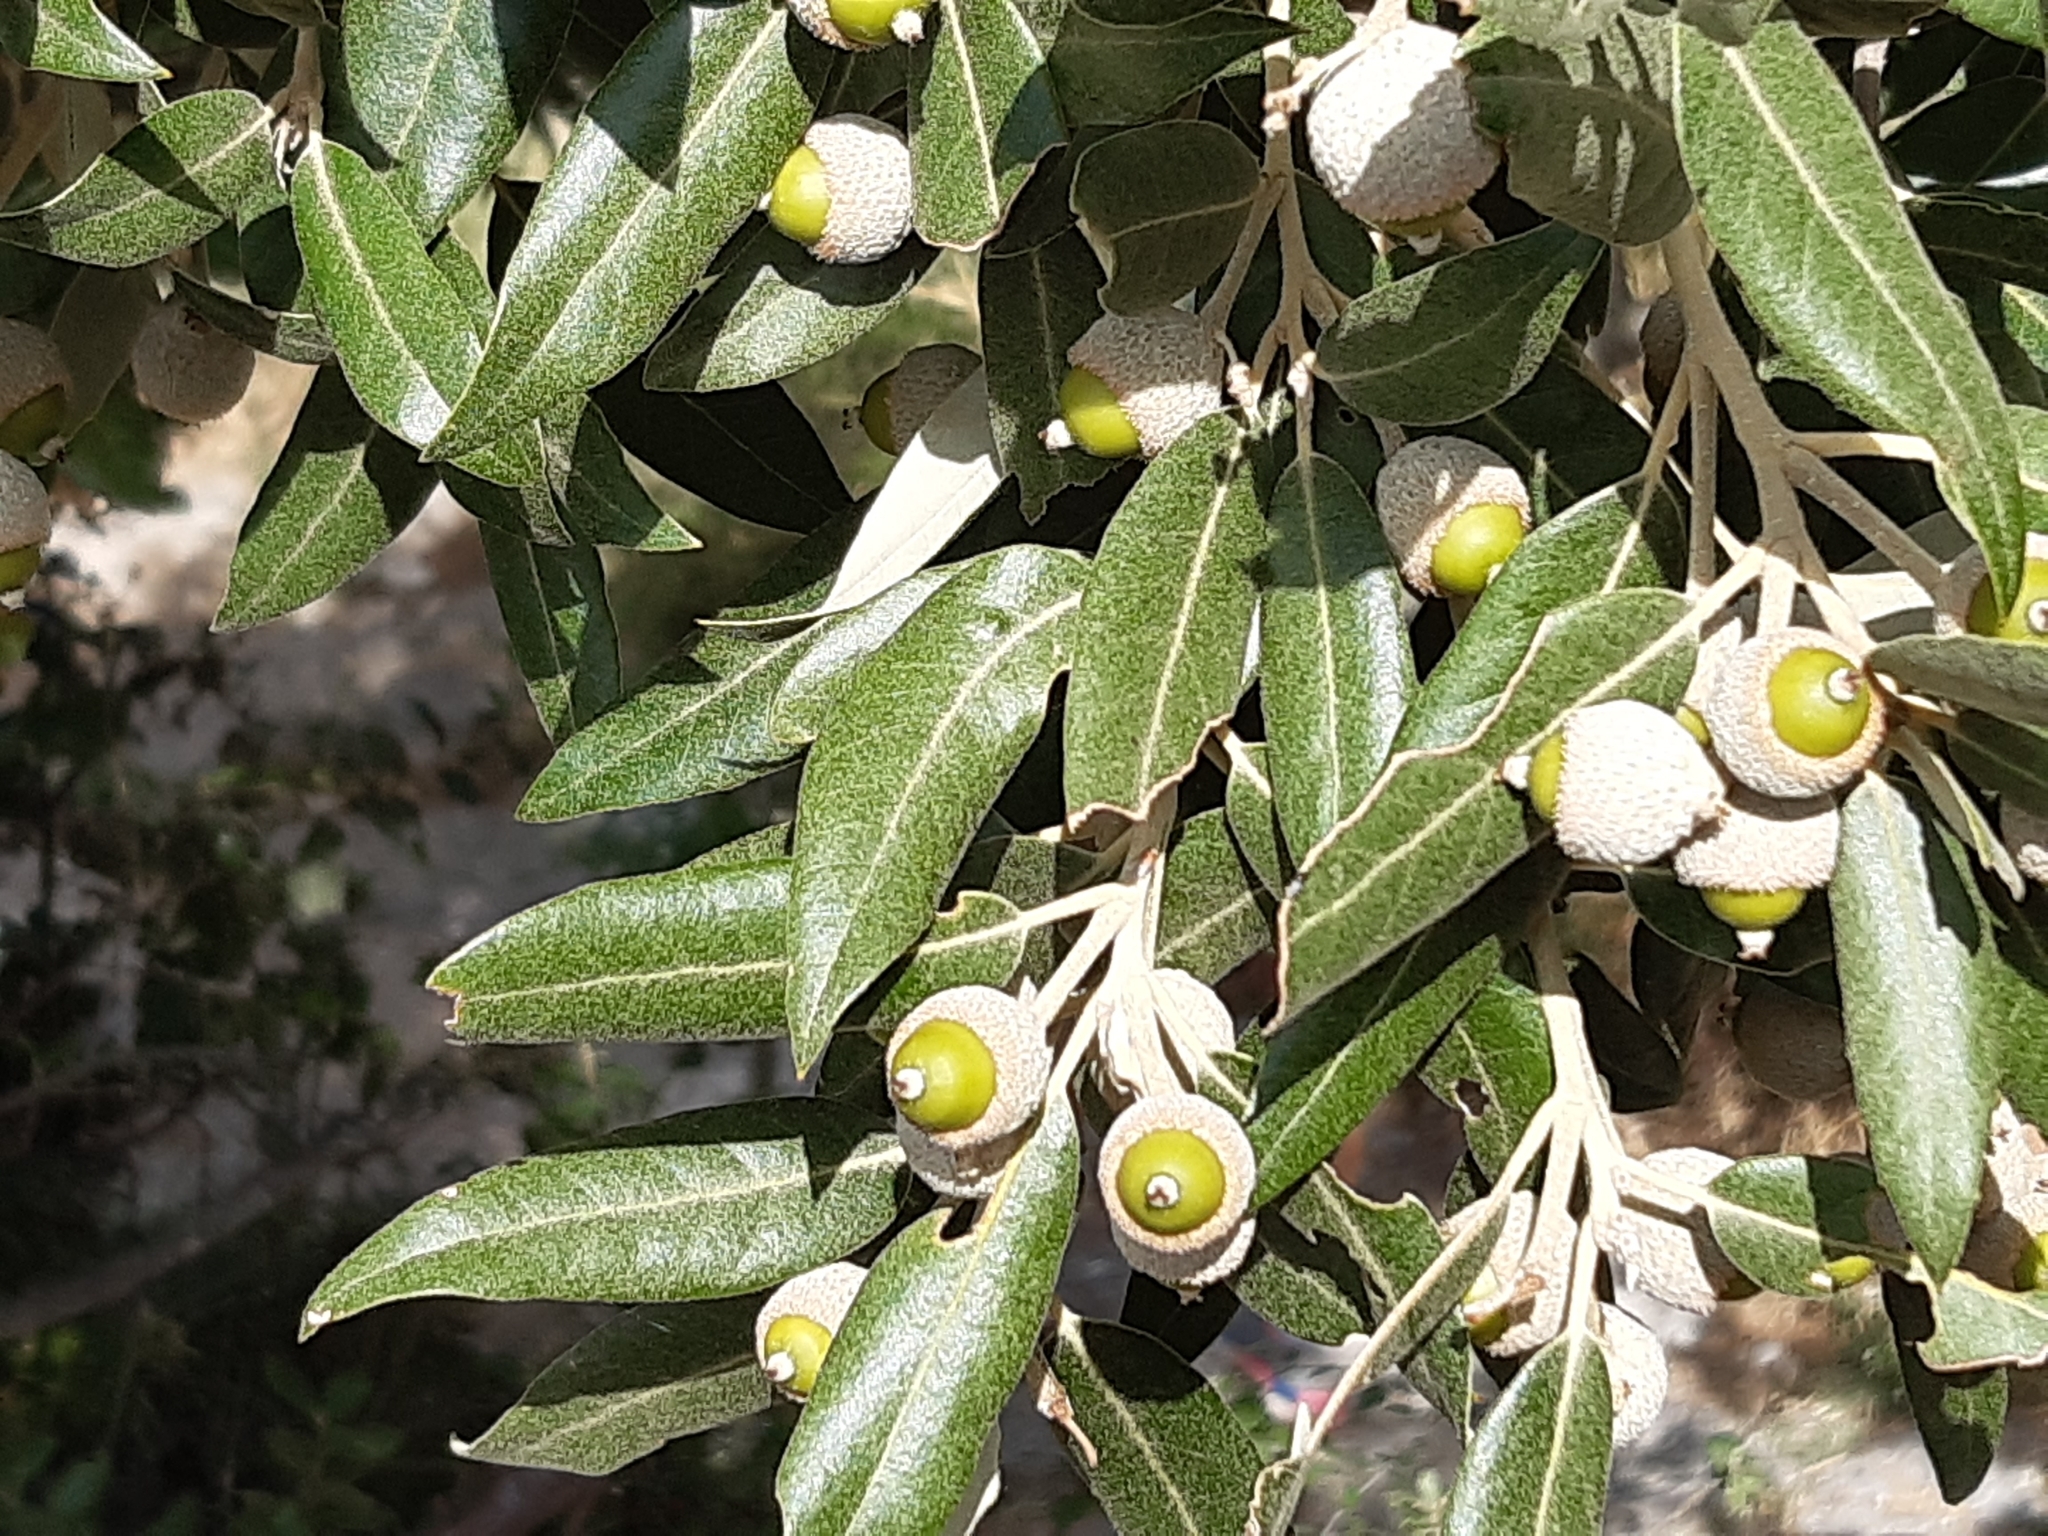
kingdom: Plantae
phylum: Tracheophyta
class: Magnoliopsida
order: Fagales
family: Fagaceae
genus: Quercus
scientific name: Quercus ilex
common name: Evergreen oak
